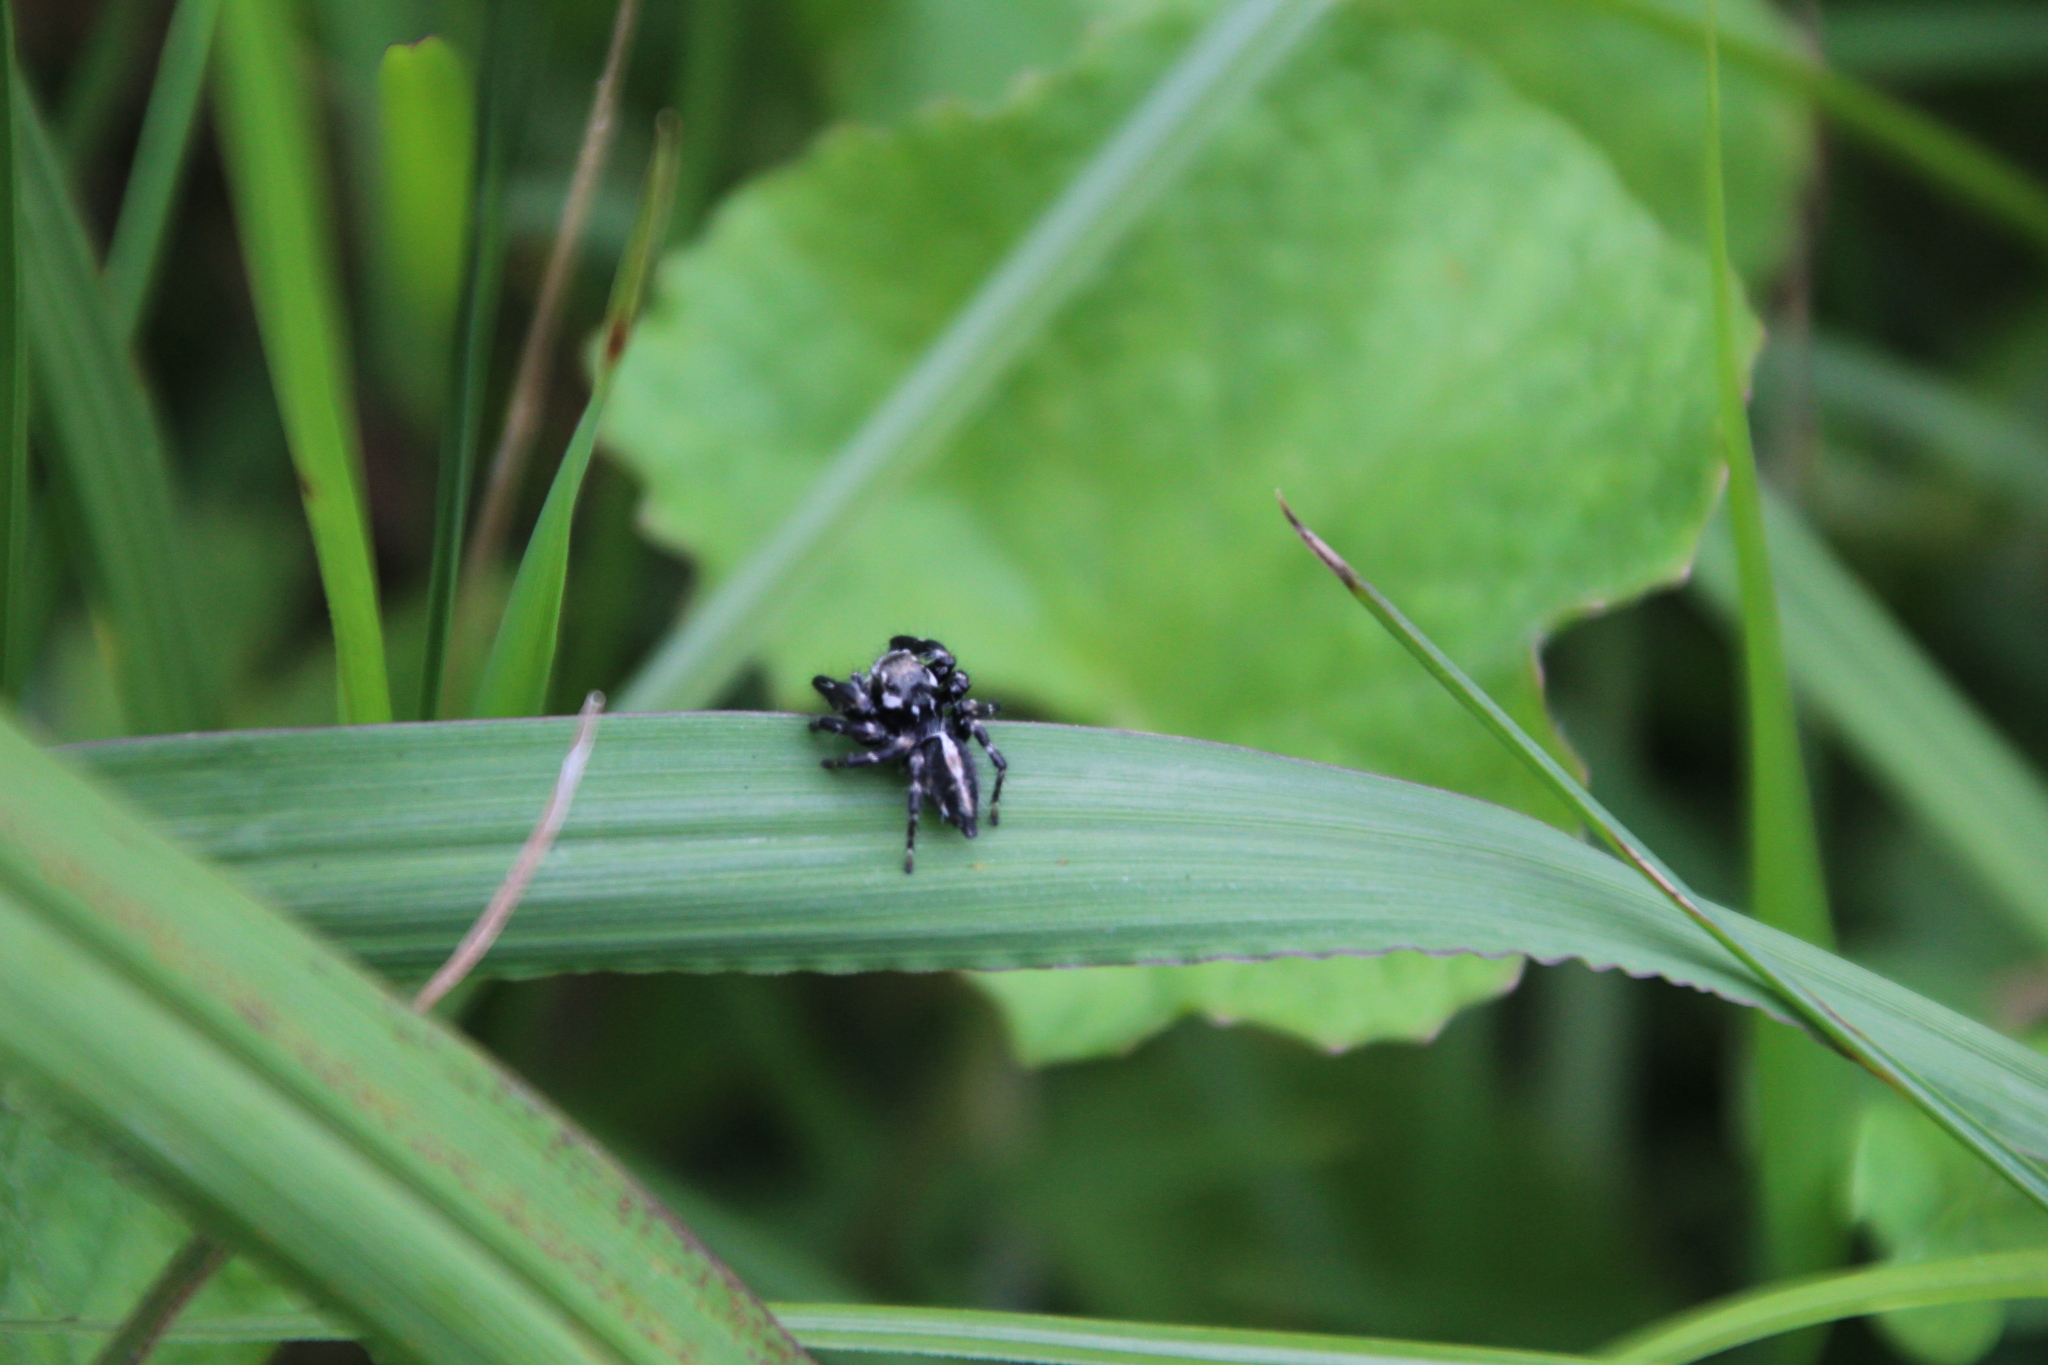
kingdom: Animalia
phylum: Arthropoda
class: Arachnida
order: Araneae
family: Salticidae
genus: Hyllus
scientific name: Hyllus dotatus
